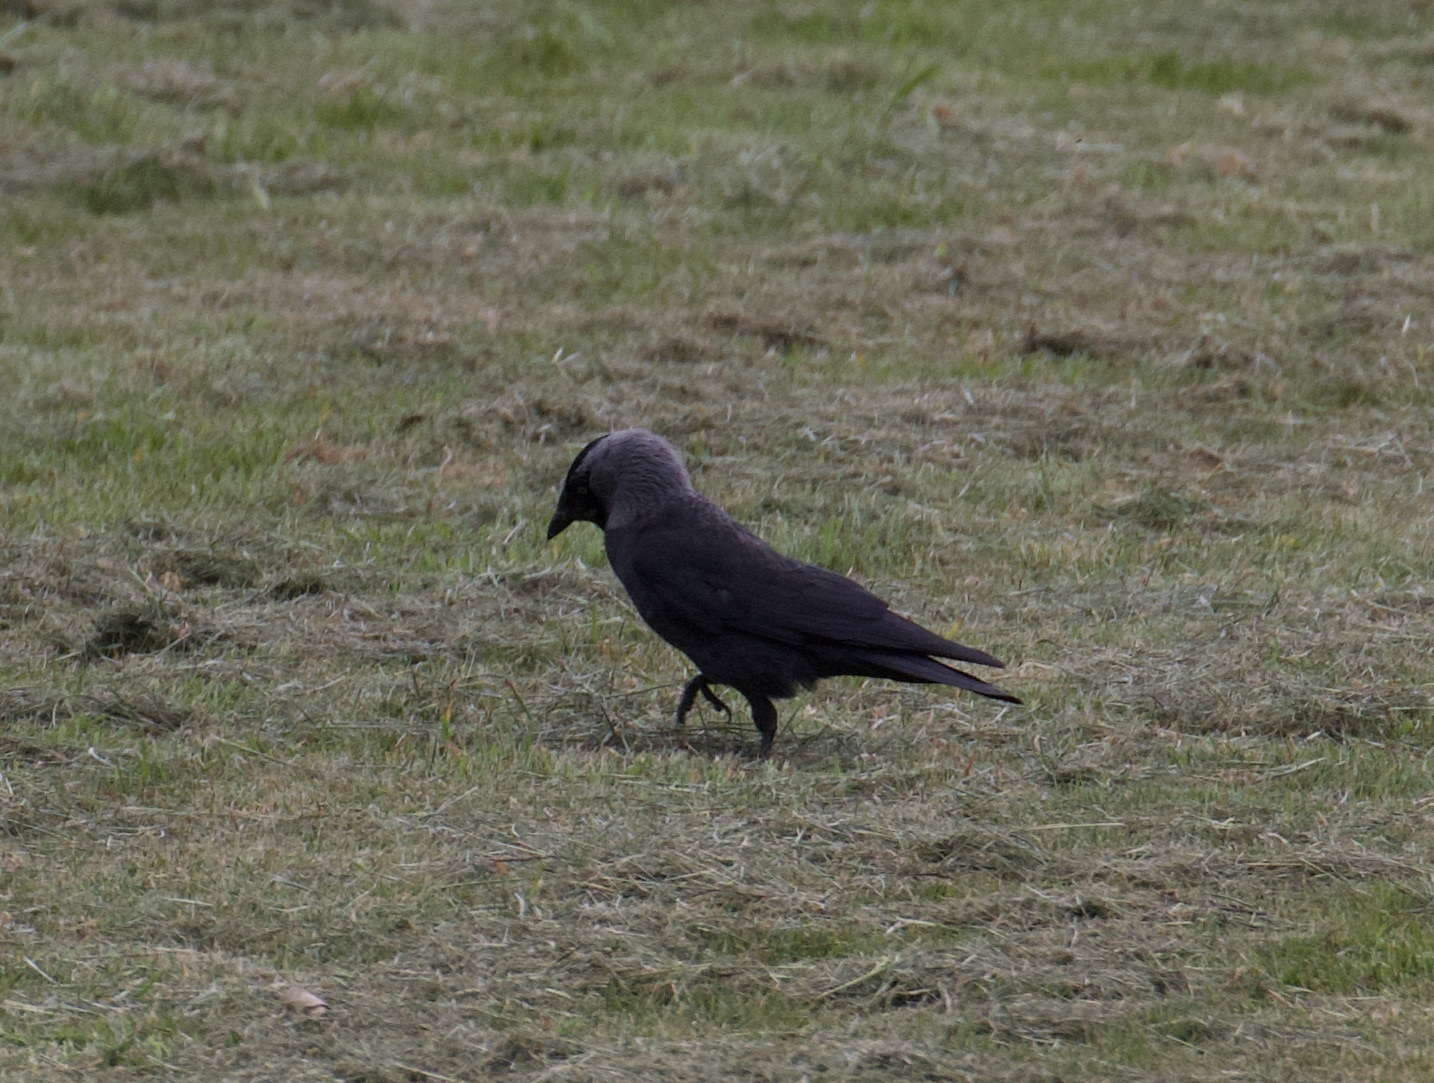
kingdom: Animalia
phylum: Chordata
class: Aves
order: Passeriformes
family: Corvidae
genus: Coloeus
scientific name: Coloeus monedula
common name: Western jackdaw
